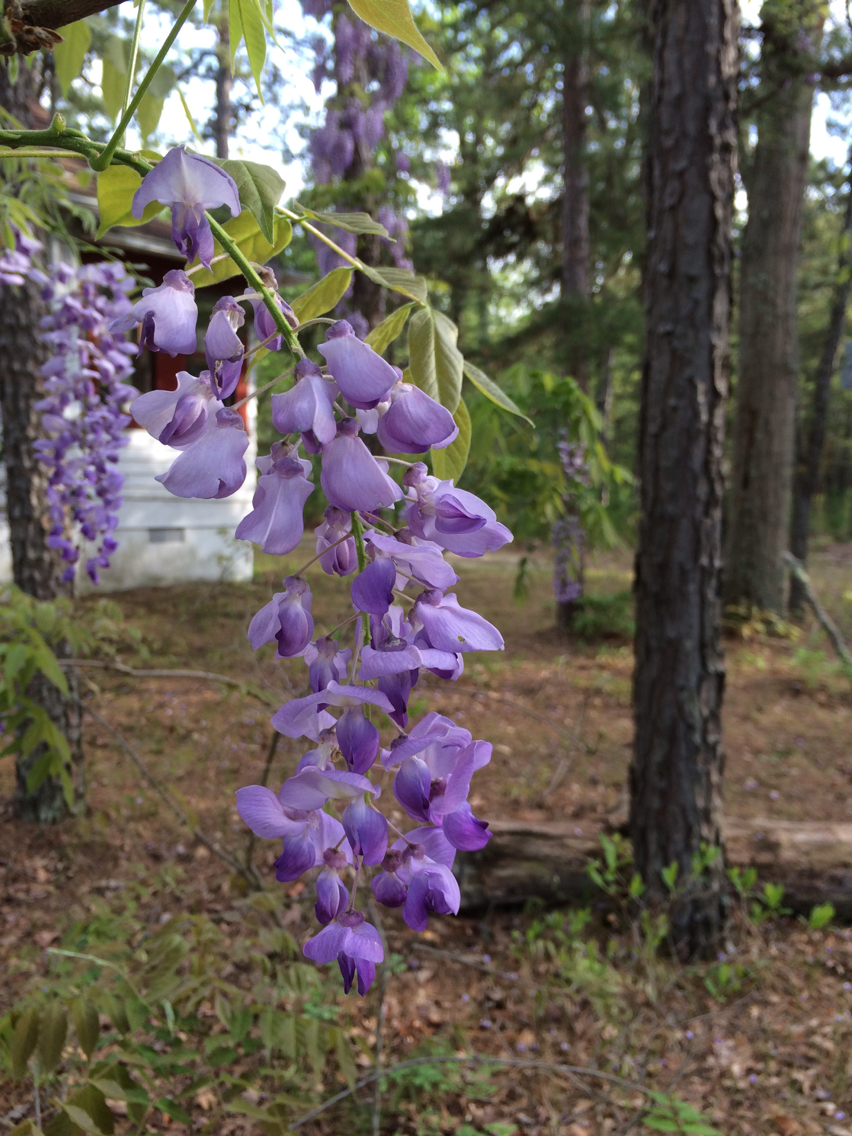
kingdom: Plantae
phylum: Tracheophyta
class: Magnoliopsida
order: Fabales
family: Fabaceae
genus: Wisteria
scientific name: Wisteria sinensis
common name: Chinese wisteria
